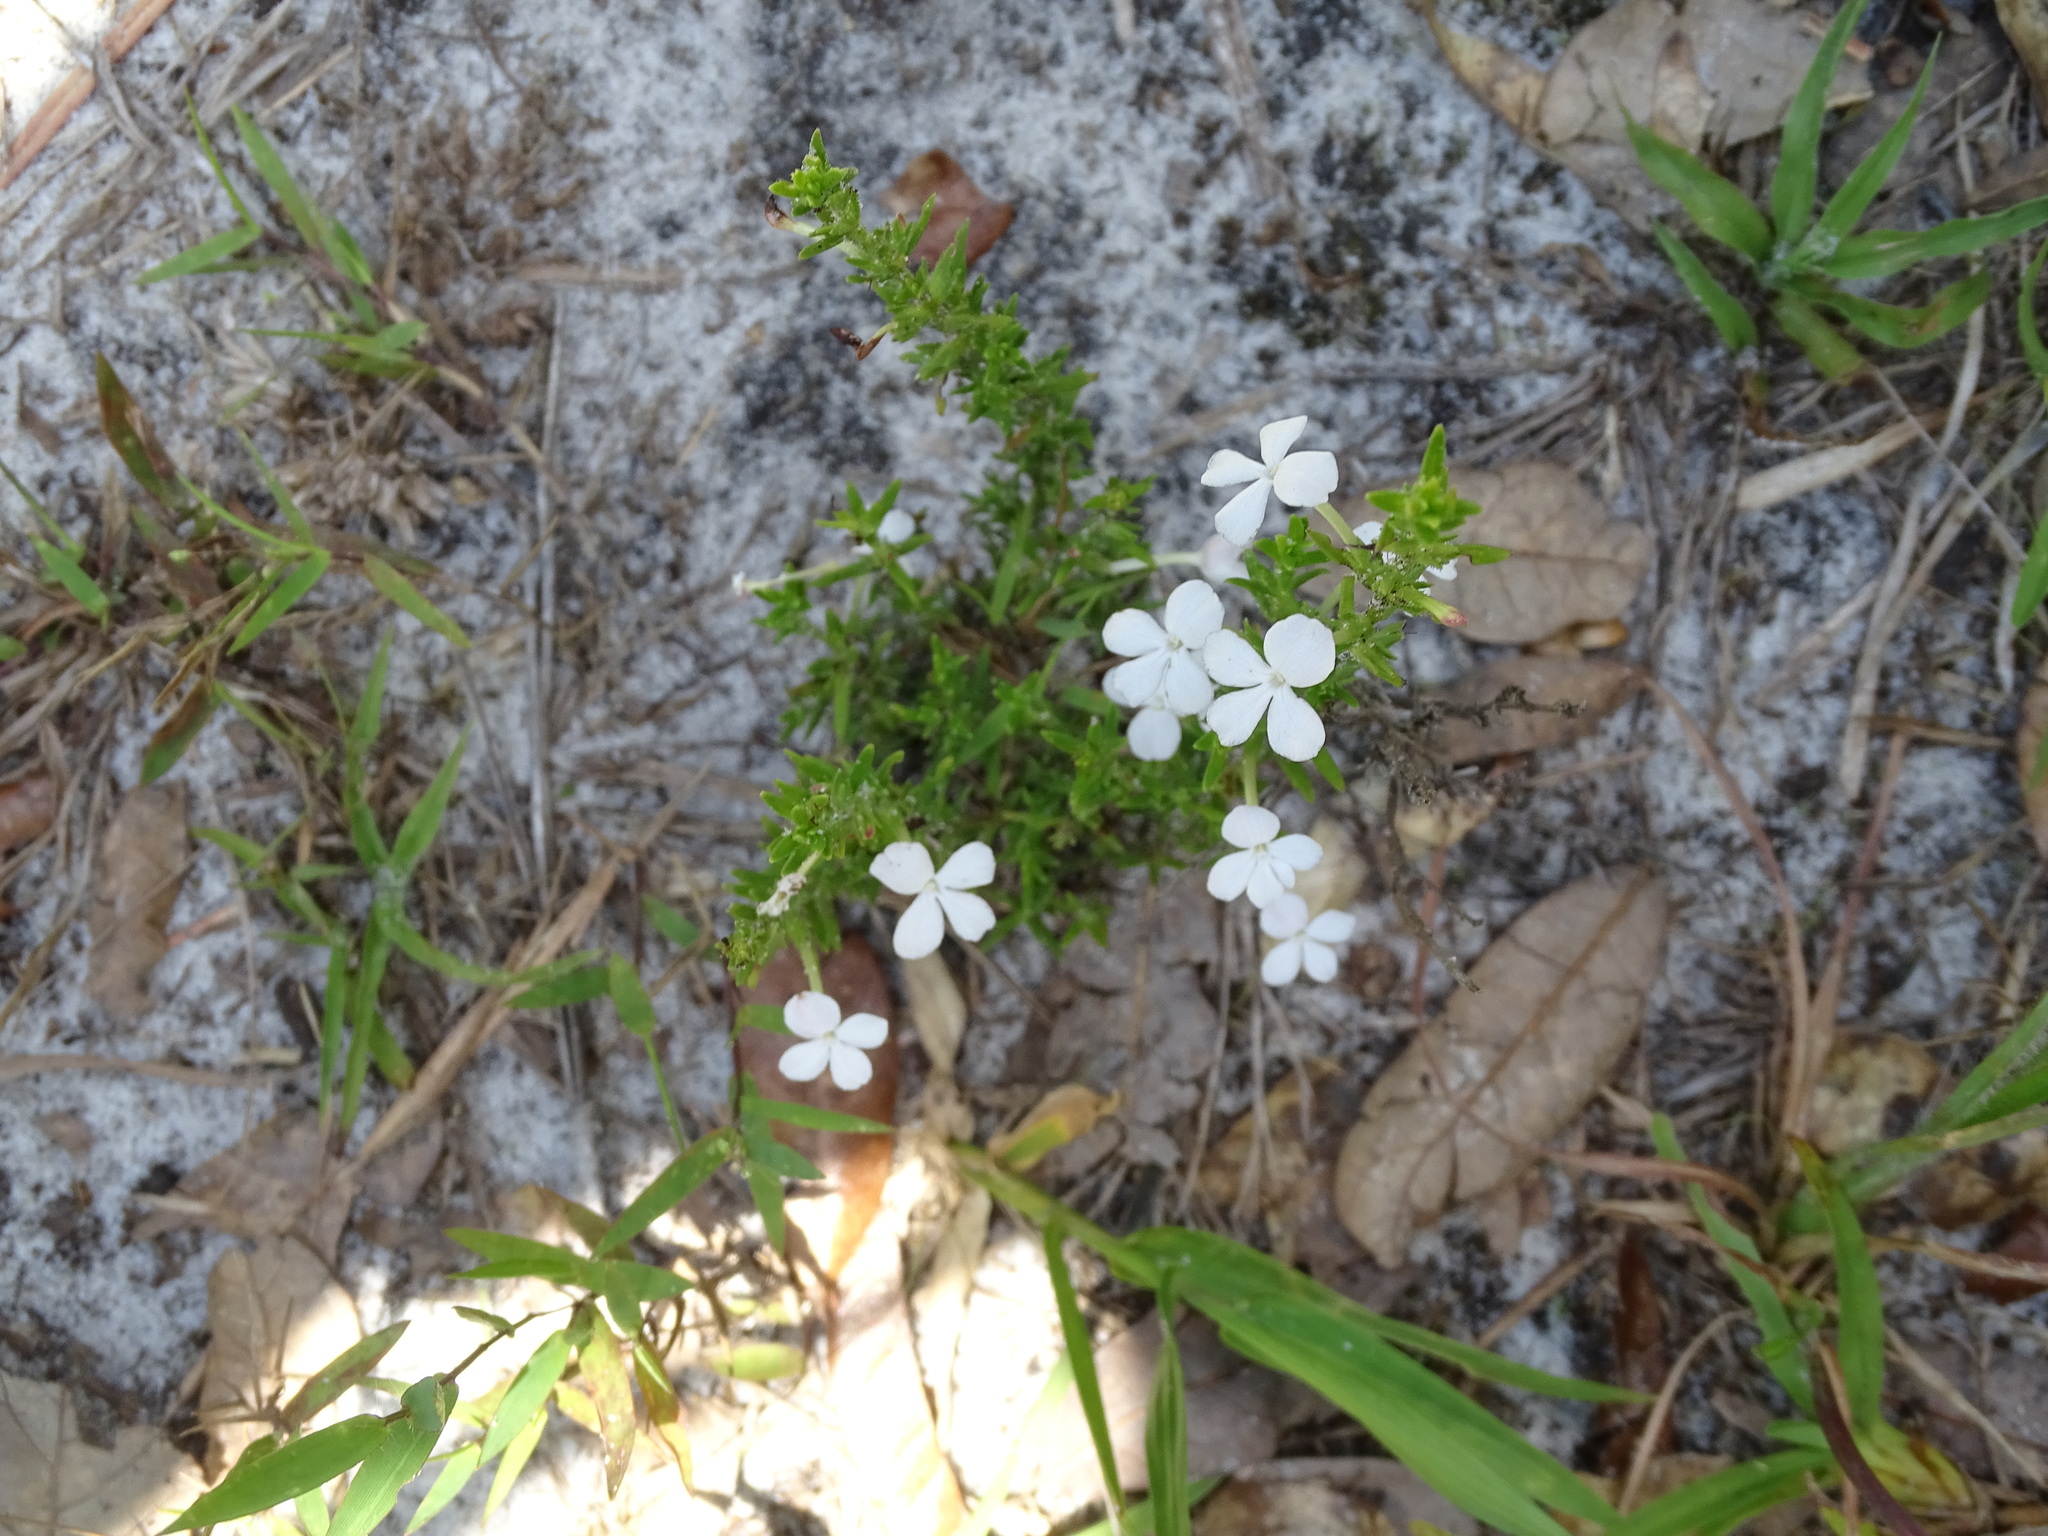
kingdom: Plantae
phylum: Tracheophyta
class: Magnoliopsida
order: Lamiales
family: Plantaginaceae
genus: Gratiola
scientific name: Gratiola hispida
